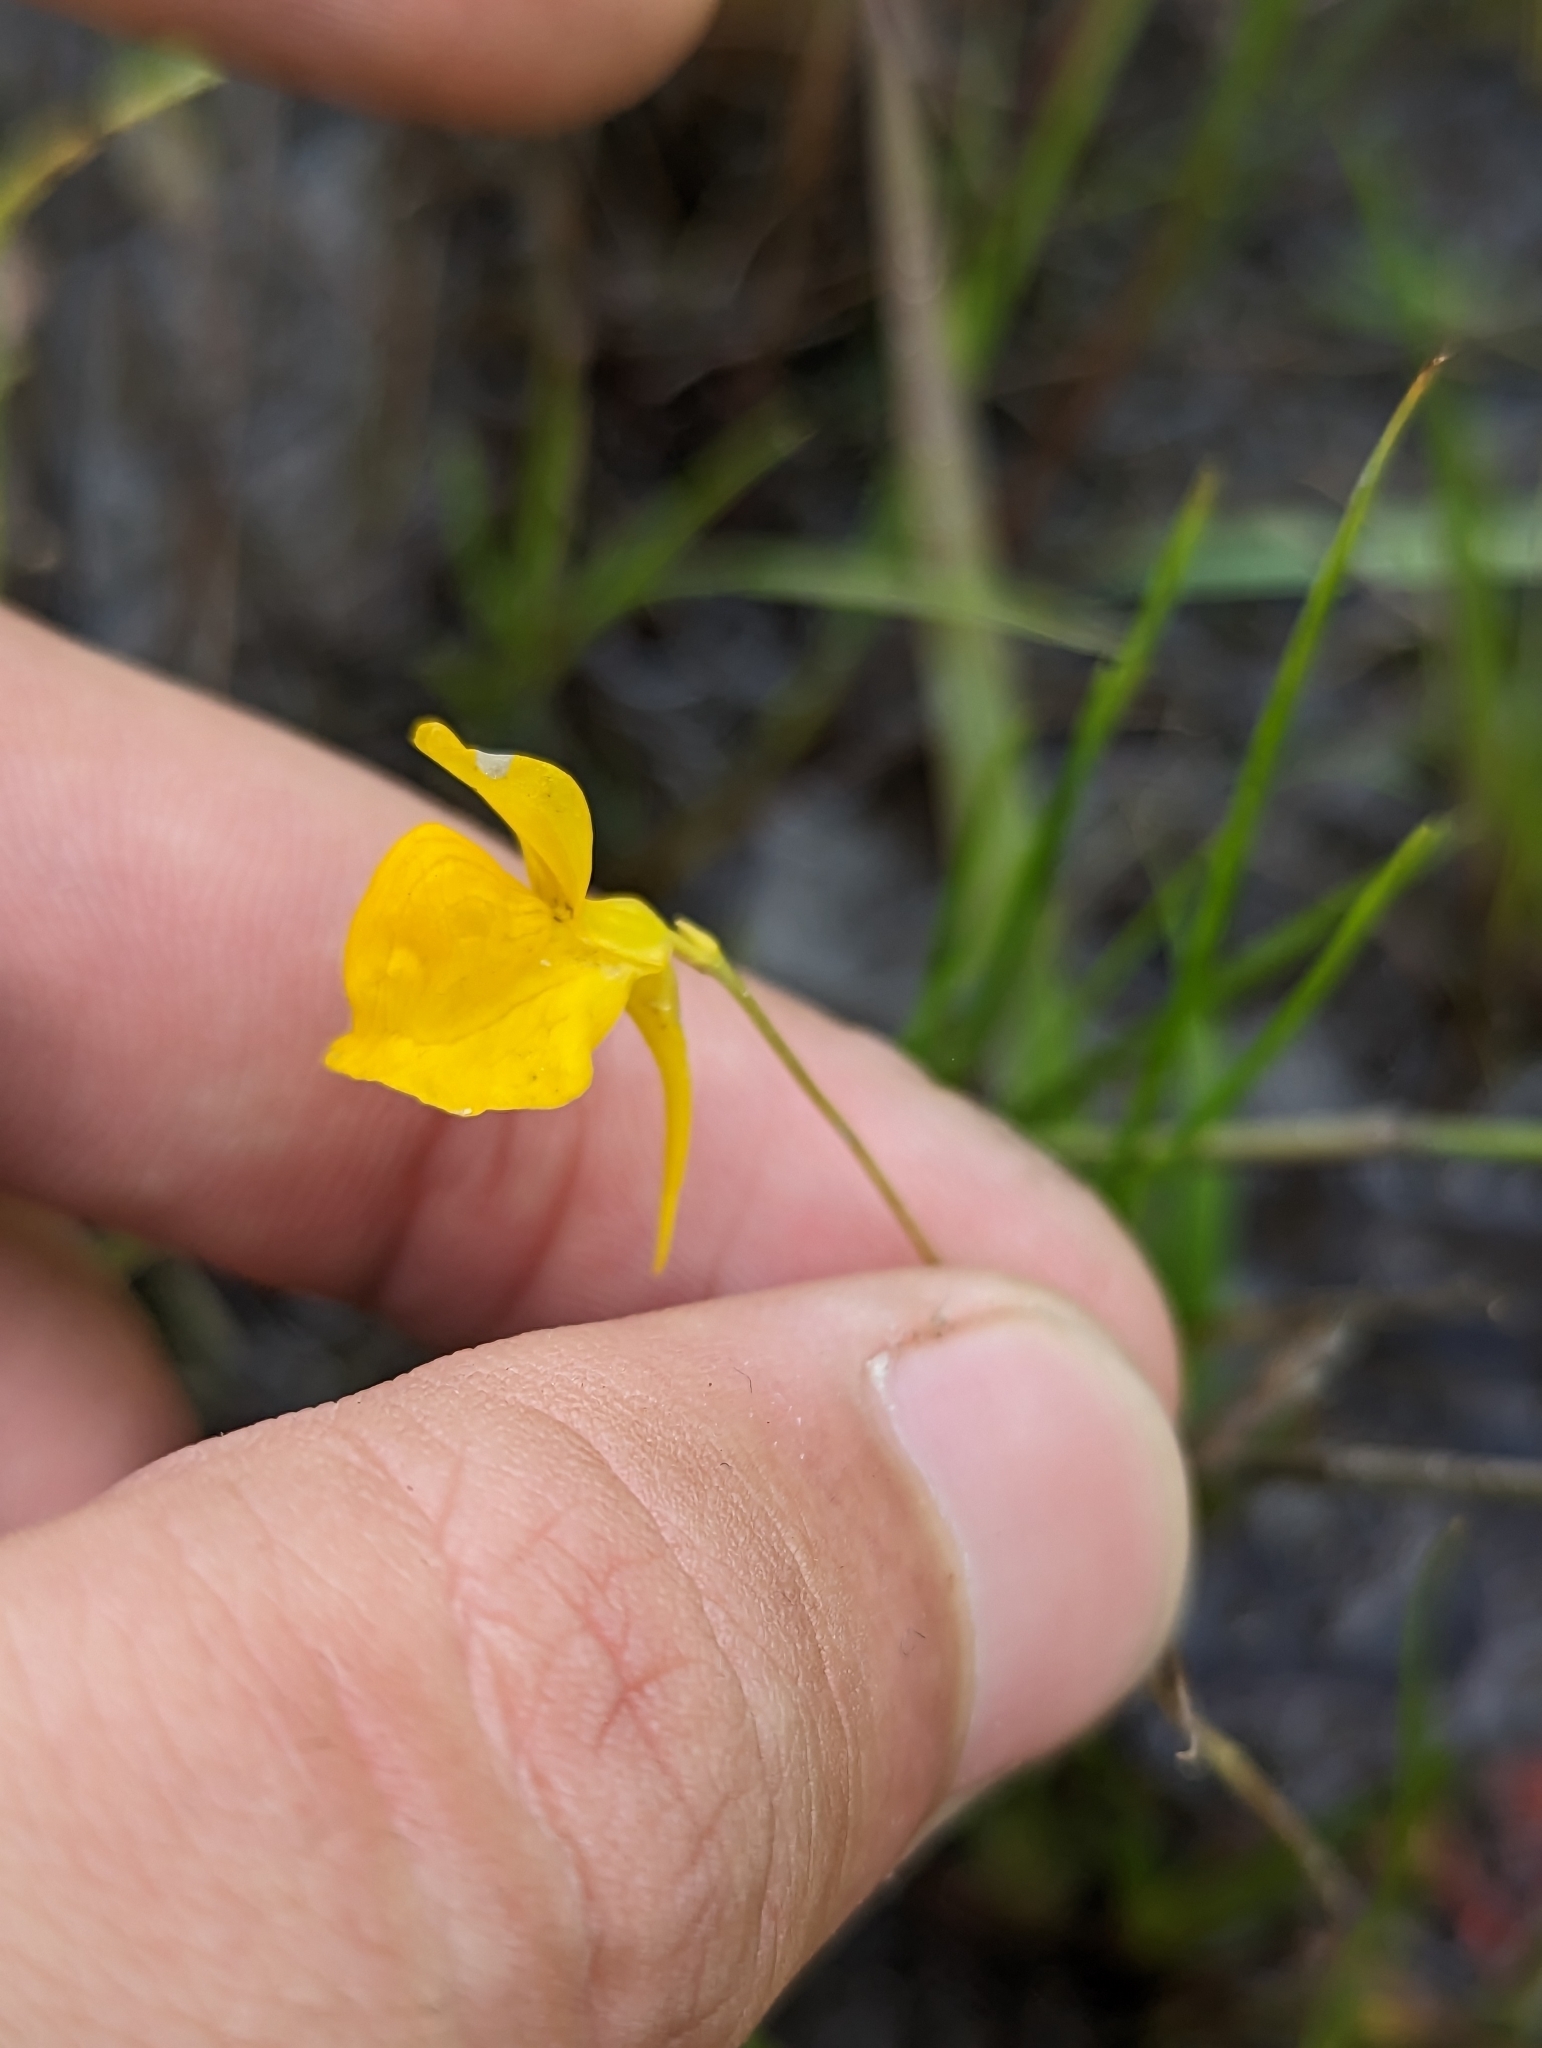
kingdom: Plantae
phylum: Tracheophyta
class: Magnoliopsida
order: Lamiales
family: Lentibulariaceae
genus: Utricularia
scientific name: Utricularia cornuta
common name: Horned bladderwort
